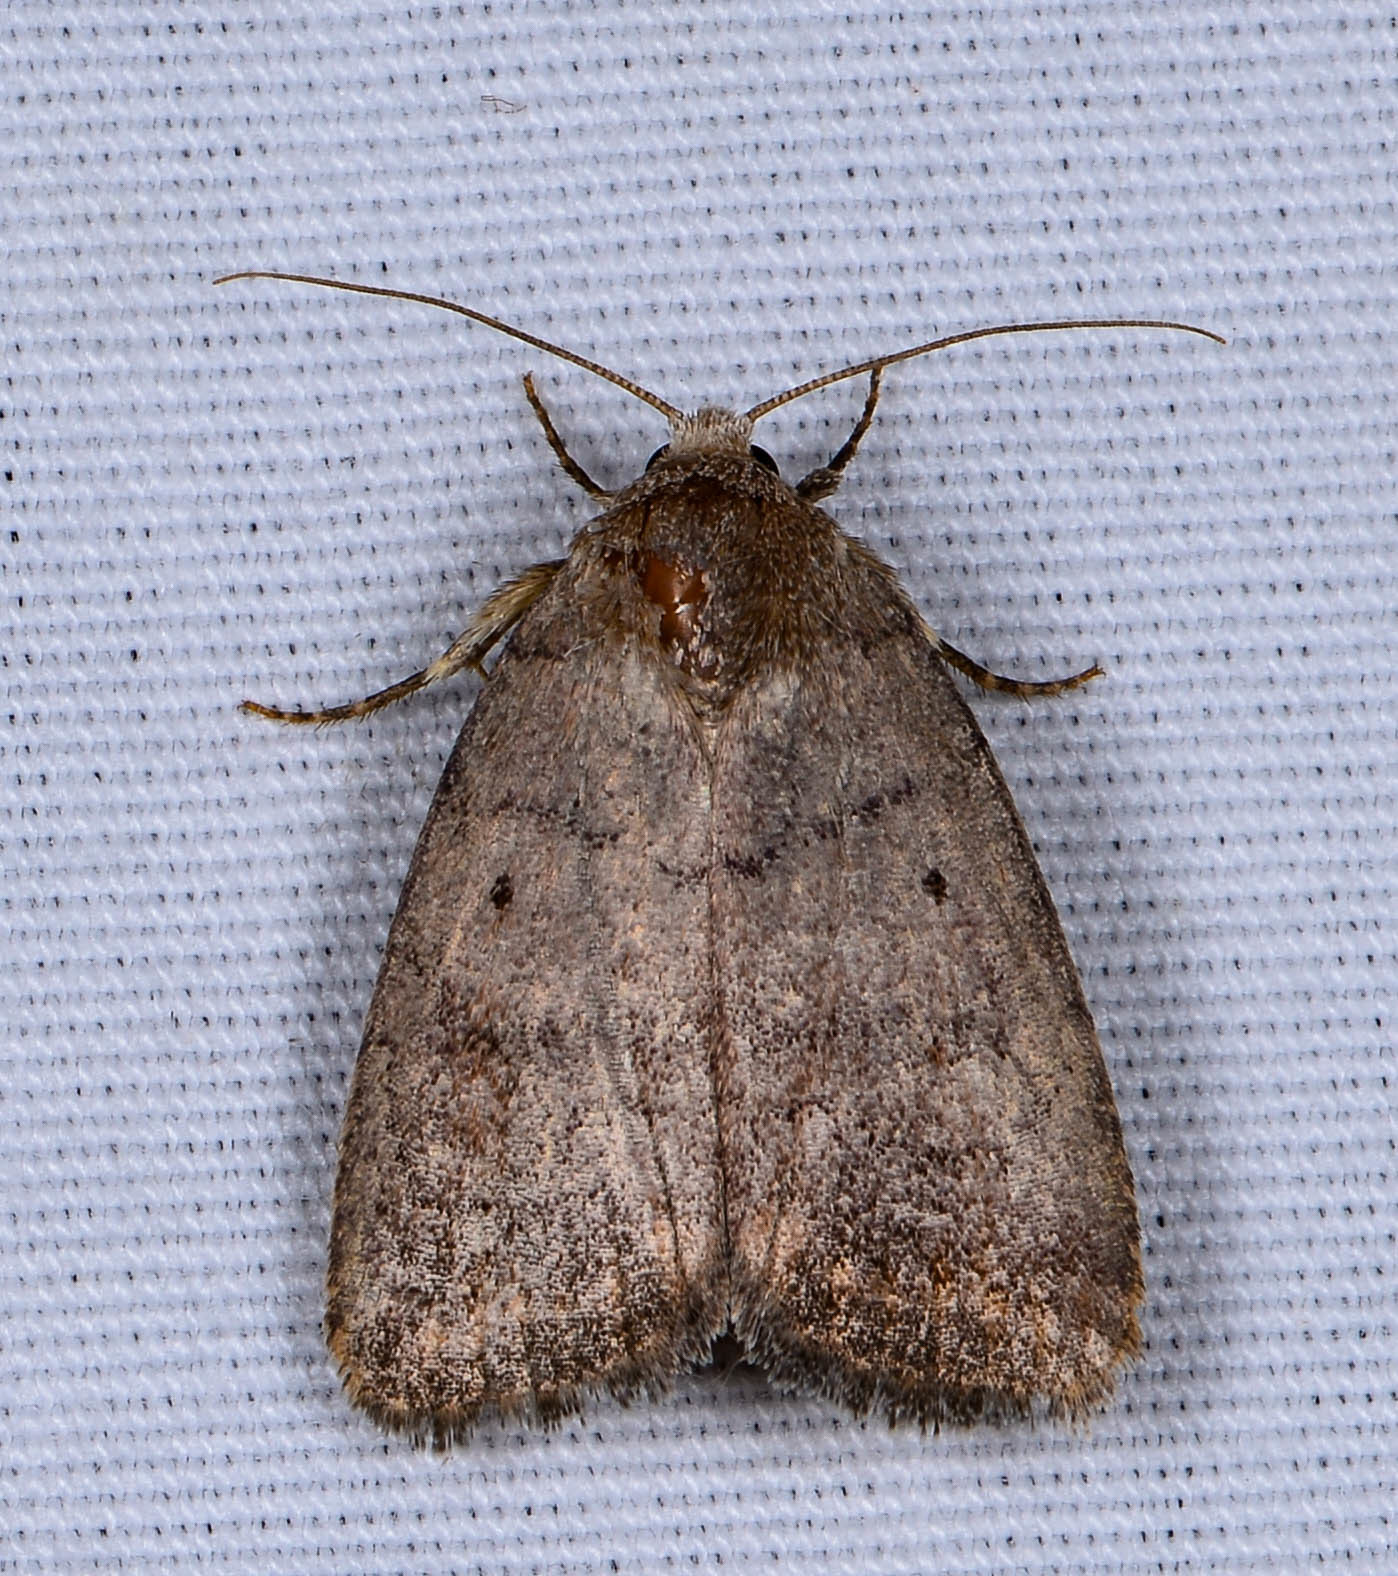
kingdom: Animalia
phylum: Arthropoda
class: Insecta
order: Lepidoptera
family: Noctuidae
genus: Athetis
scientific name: Athetis tarda
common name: Slowpoke moth
